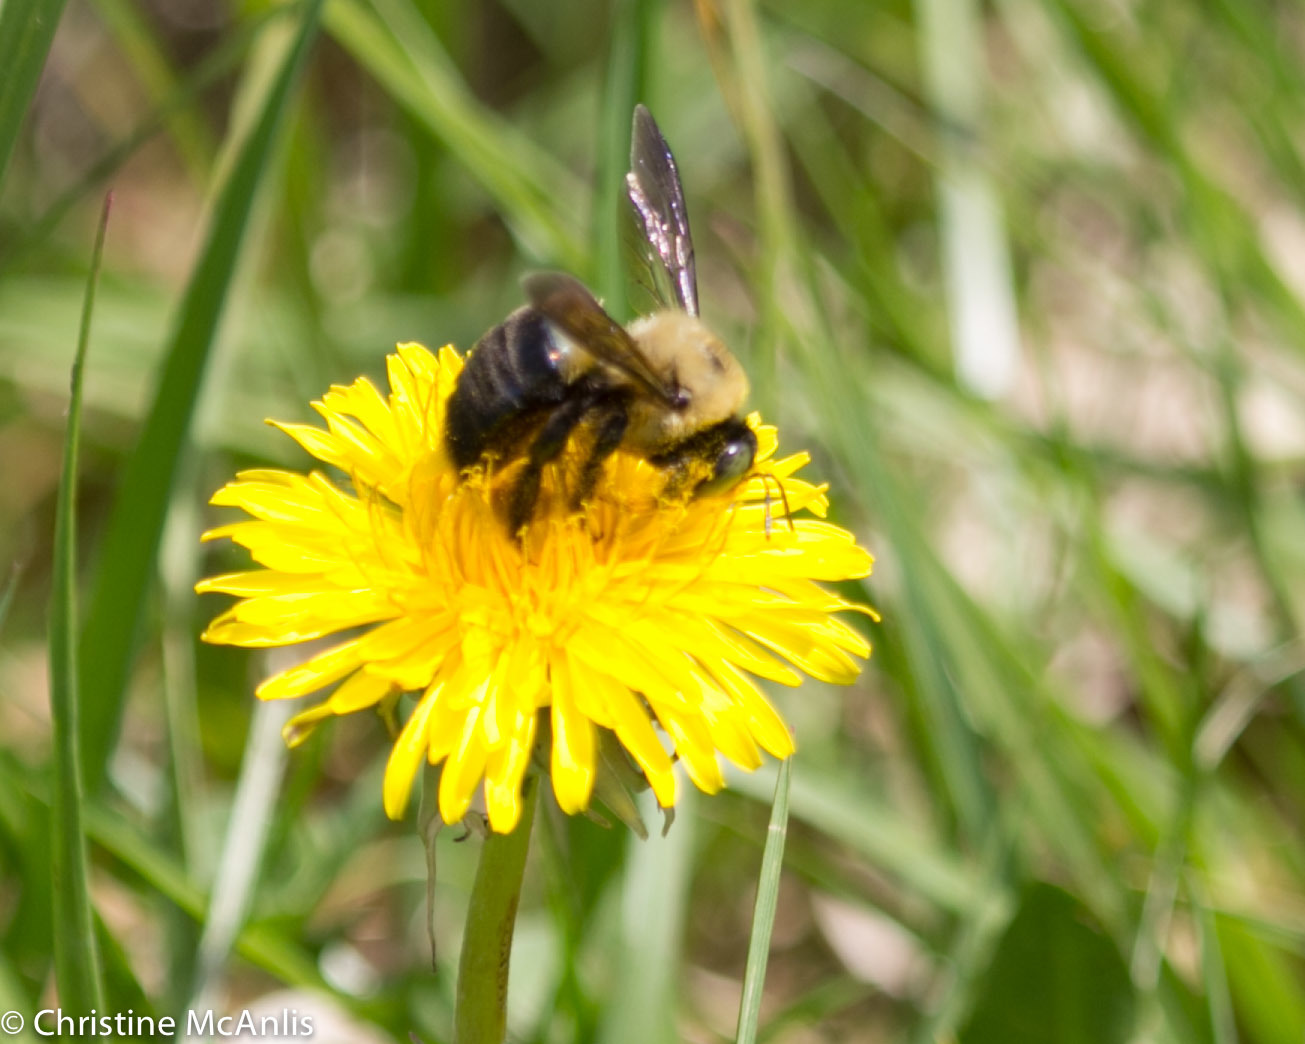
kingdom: Animalia
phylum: Arthropoda
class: Insecta
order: Hymenoptera
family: Apidae
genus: Xylocopa
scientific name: Xylocopa virginica
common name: Carpenter bee
